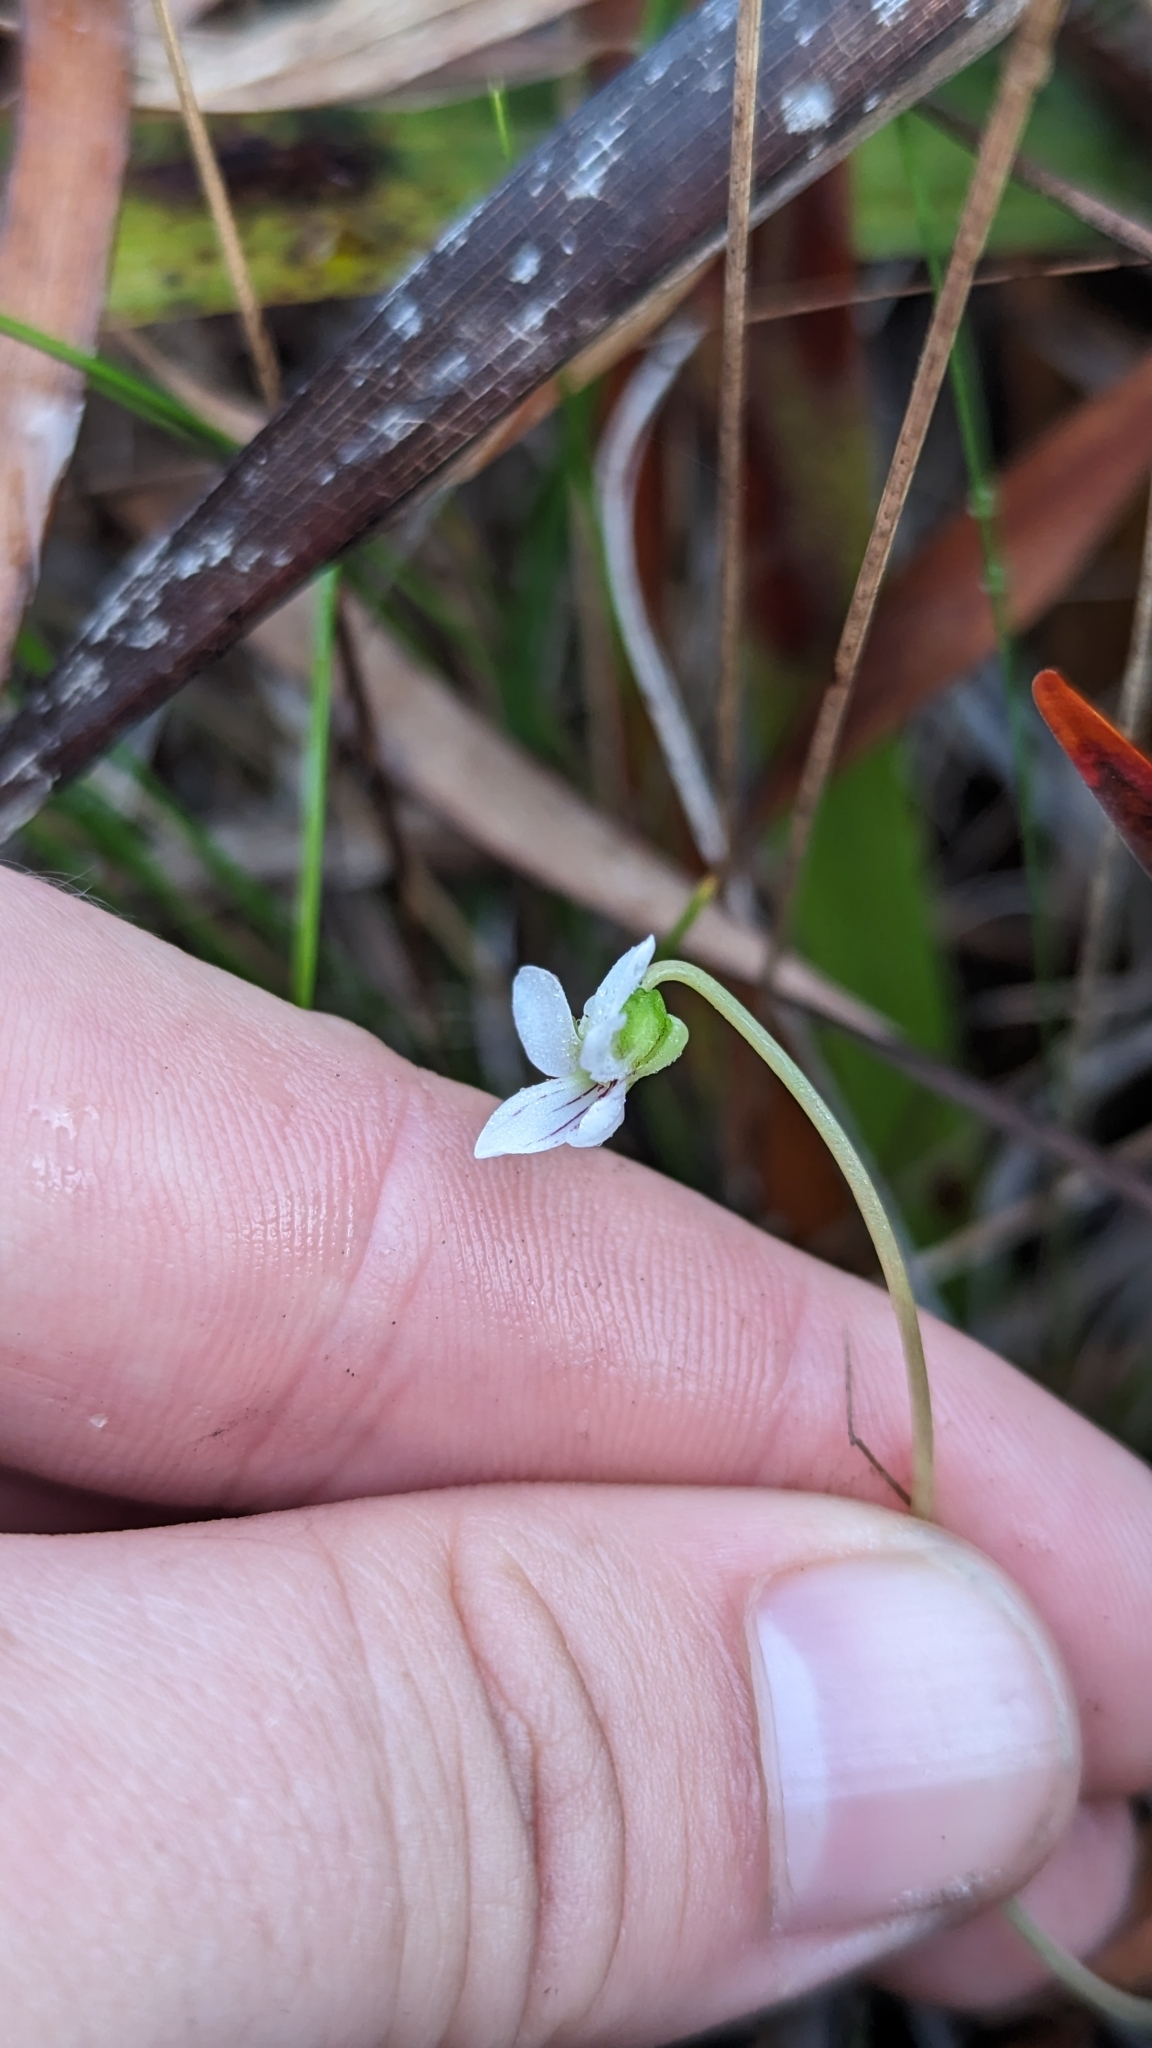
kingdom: Plantae
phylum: Tracheophyta
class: Magnoliopsida
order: Malpighiales
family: Violaceae
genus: Viola
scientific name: Viola vittata
